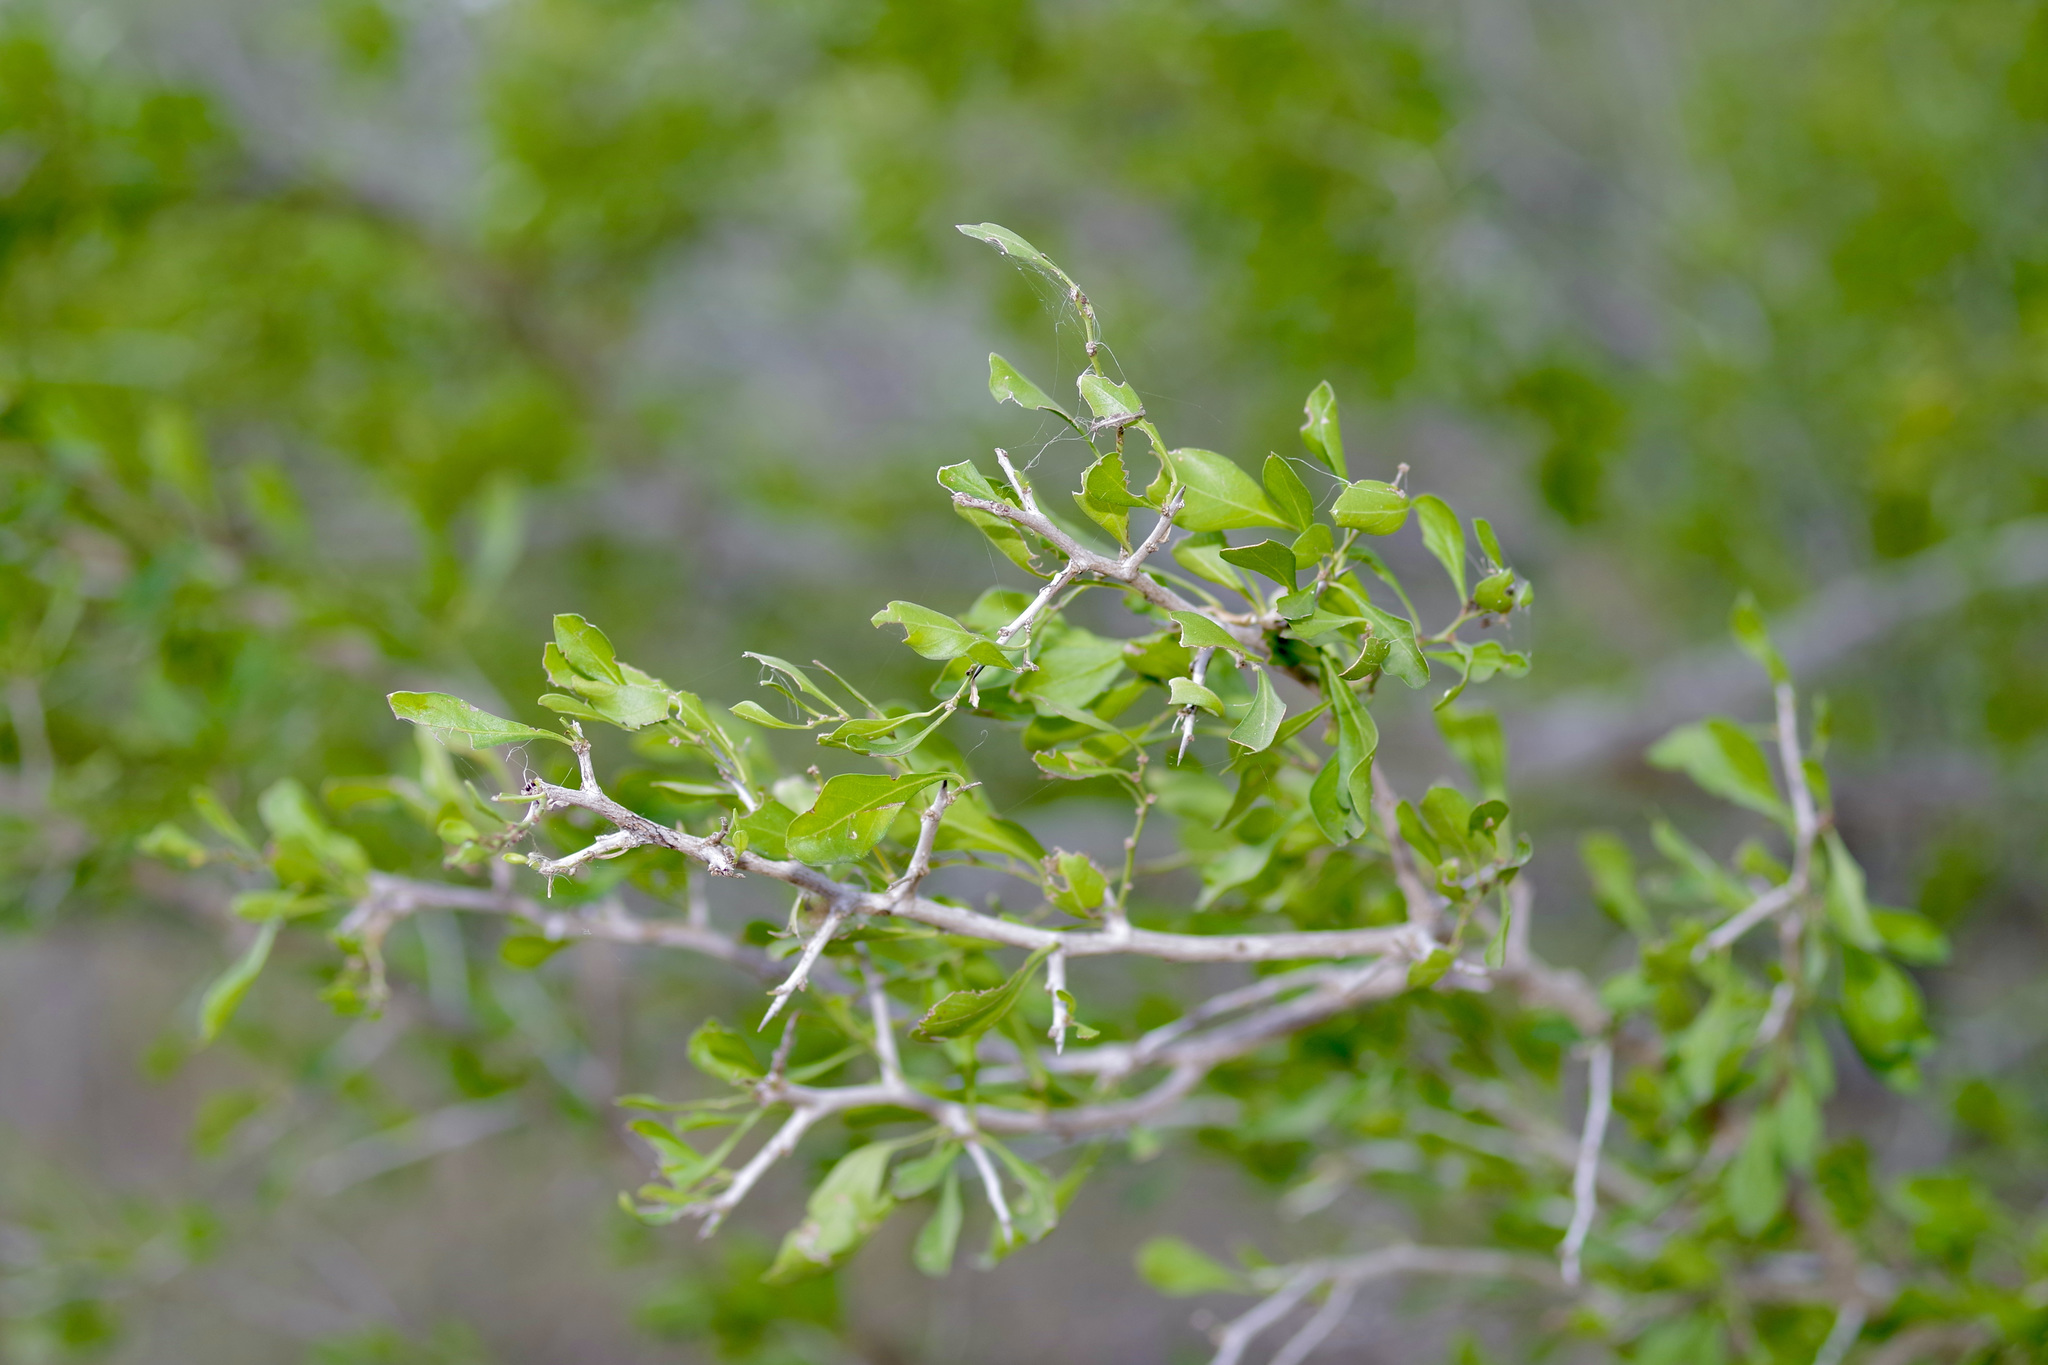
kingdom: Plantae
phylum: Tracheophyta
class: Magnoliopsida
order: Rosales
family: Rhamnaceae
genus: Condalia
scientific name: Condalia hookeri
